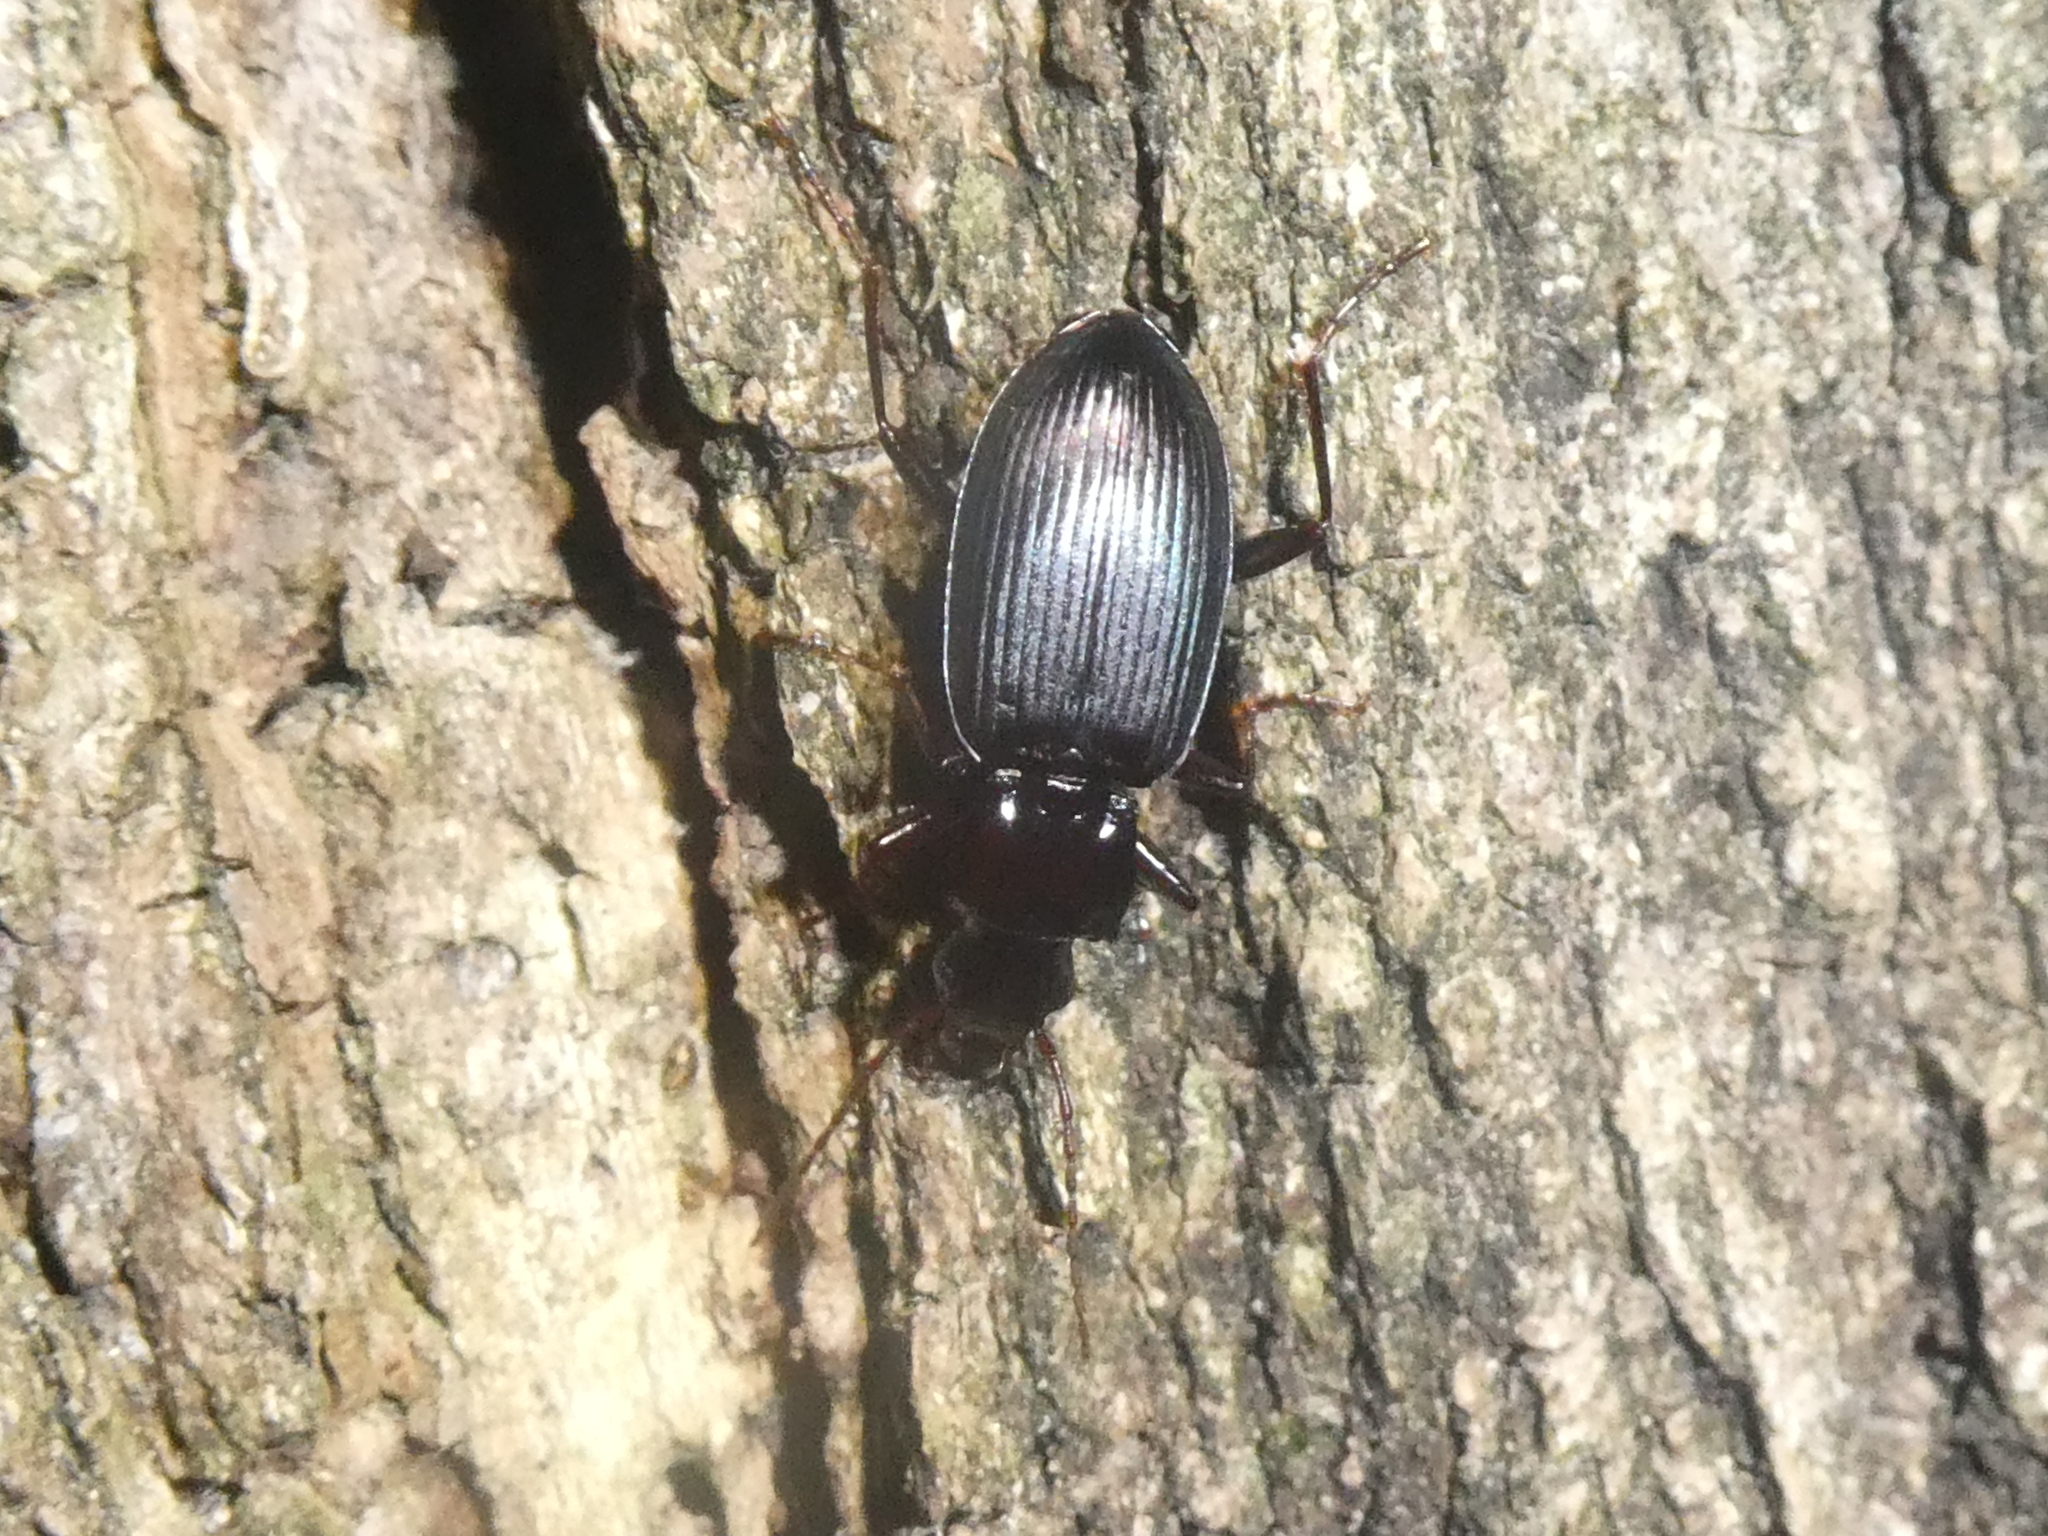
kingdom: Animalia
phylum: Arthropoda
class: Insecta
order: Coleoptera
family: Carabidae
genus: Laemostenus
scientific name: Laemostenus complanatus
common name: Cosmopolitan ground beetle
